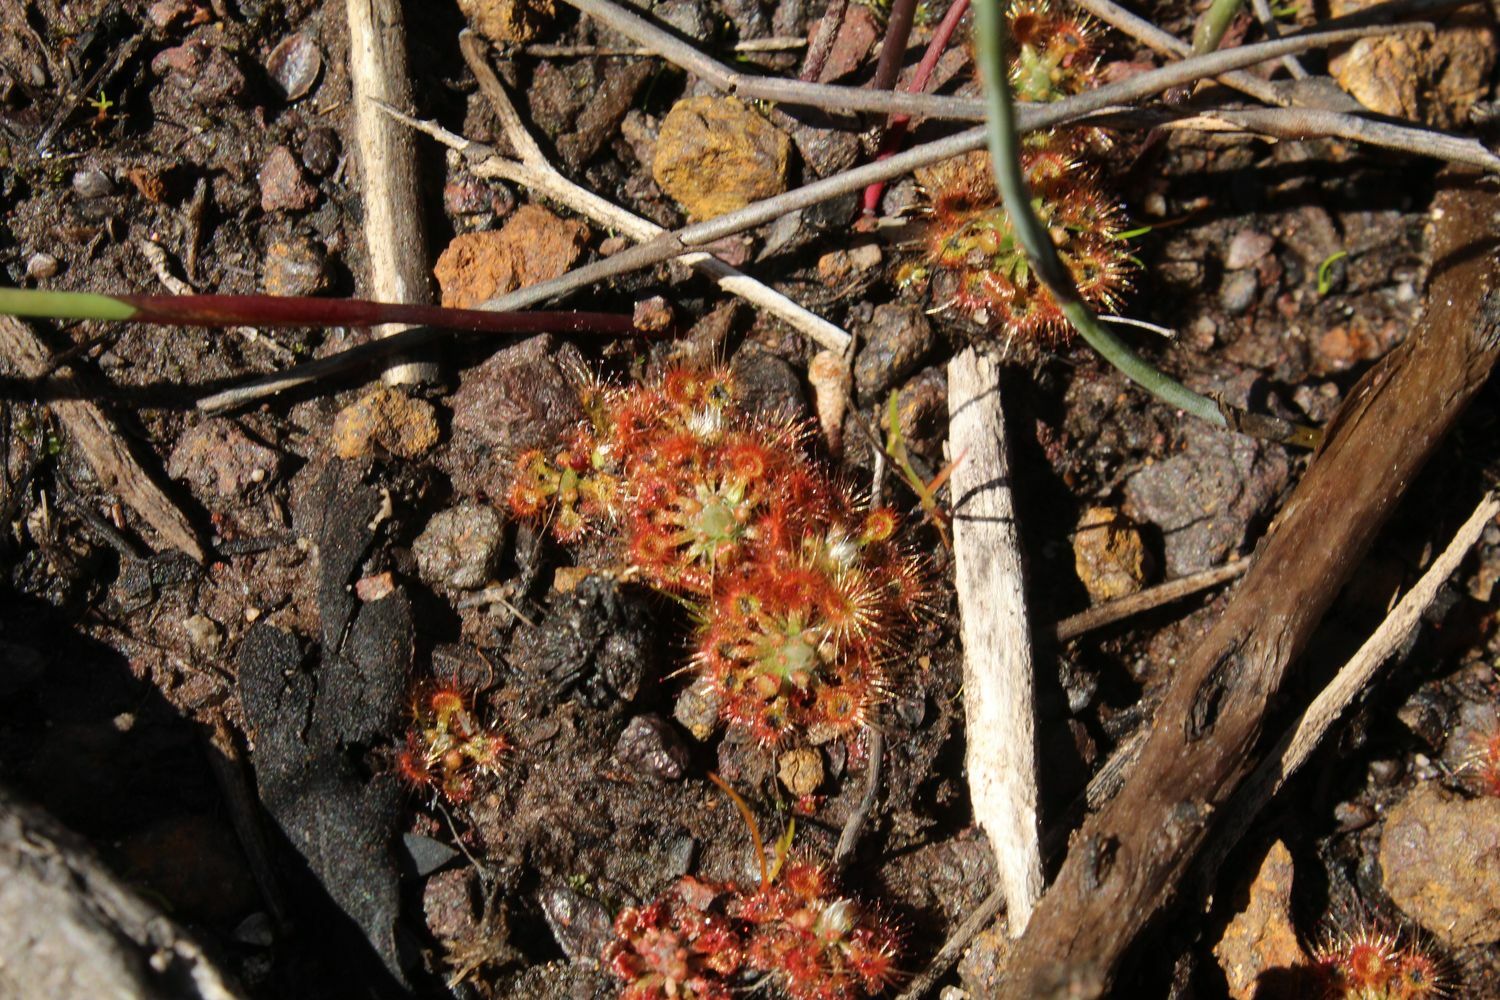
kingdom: Plantae
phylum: Tracheophyta
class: Magnoliopsida
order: Caryophyllales
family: Droseraceae
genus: Drosera
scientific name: Drosera nitidula
